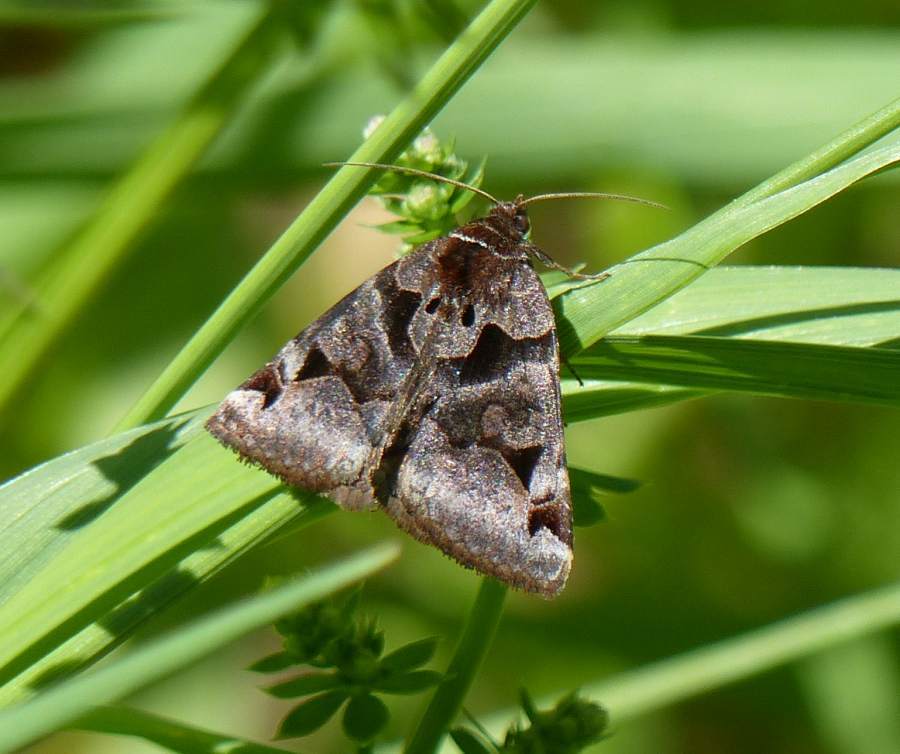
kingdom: Animalia
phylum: Arthropoda
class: Insecta
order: Lepidoptera
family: Erebidae
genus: Euclidia
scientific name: Euclidia cuspidea
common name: Toothed somberwing
